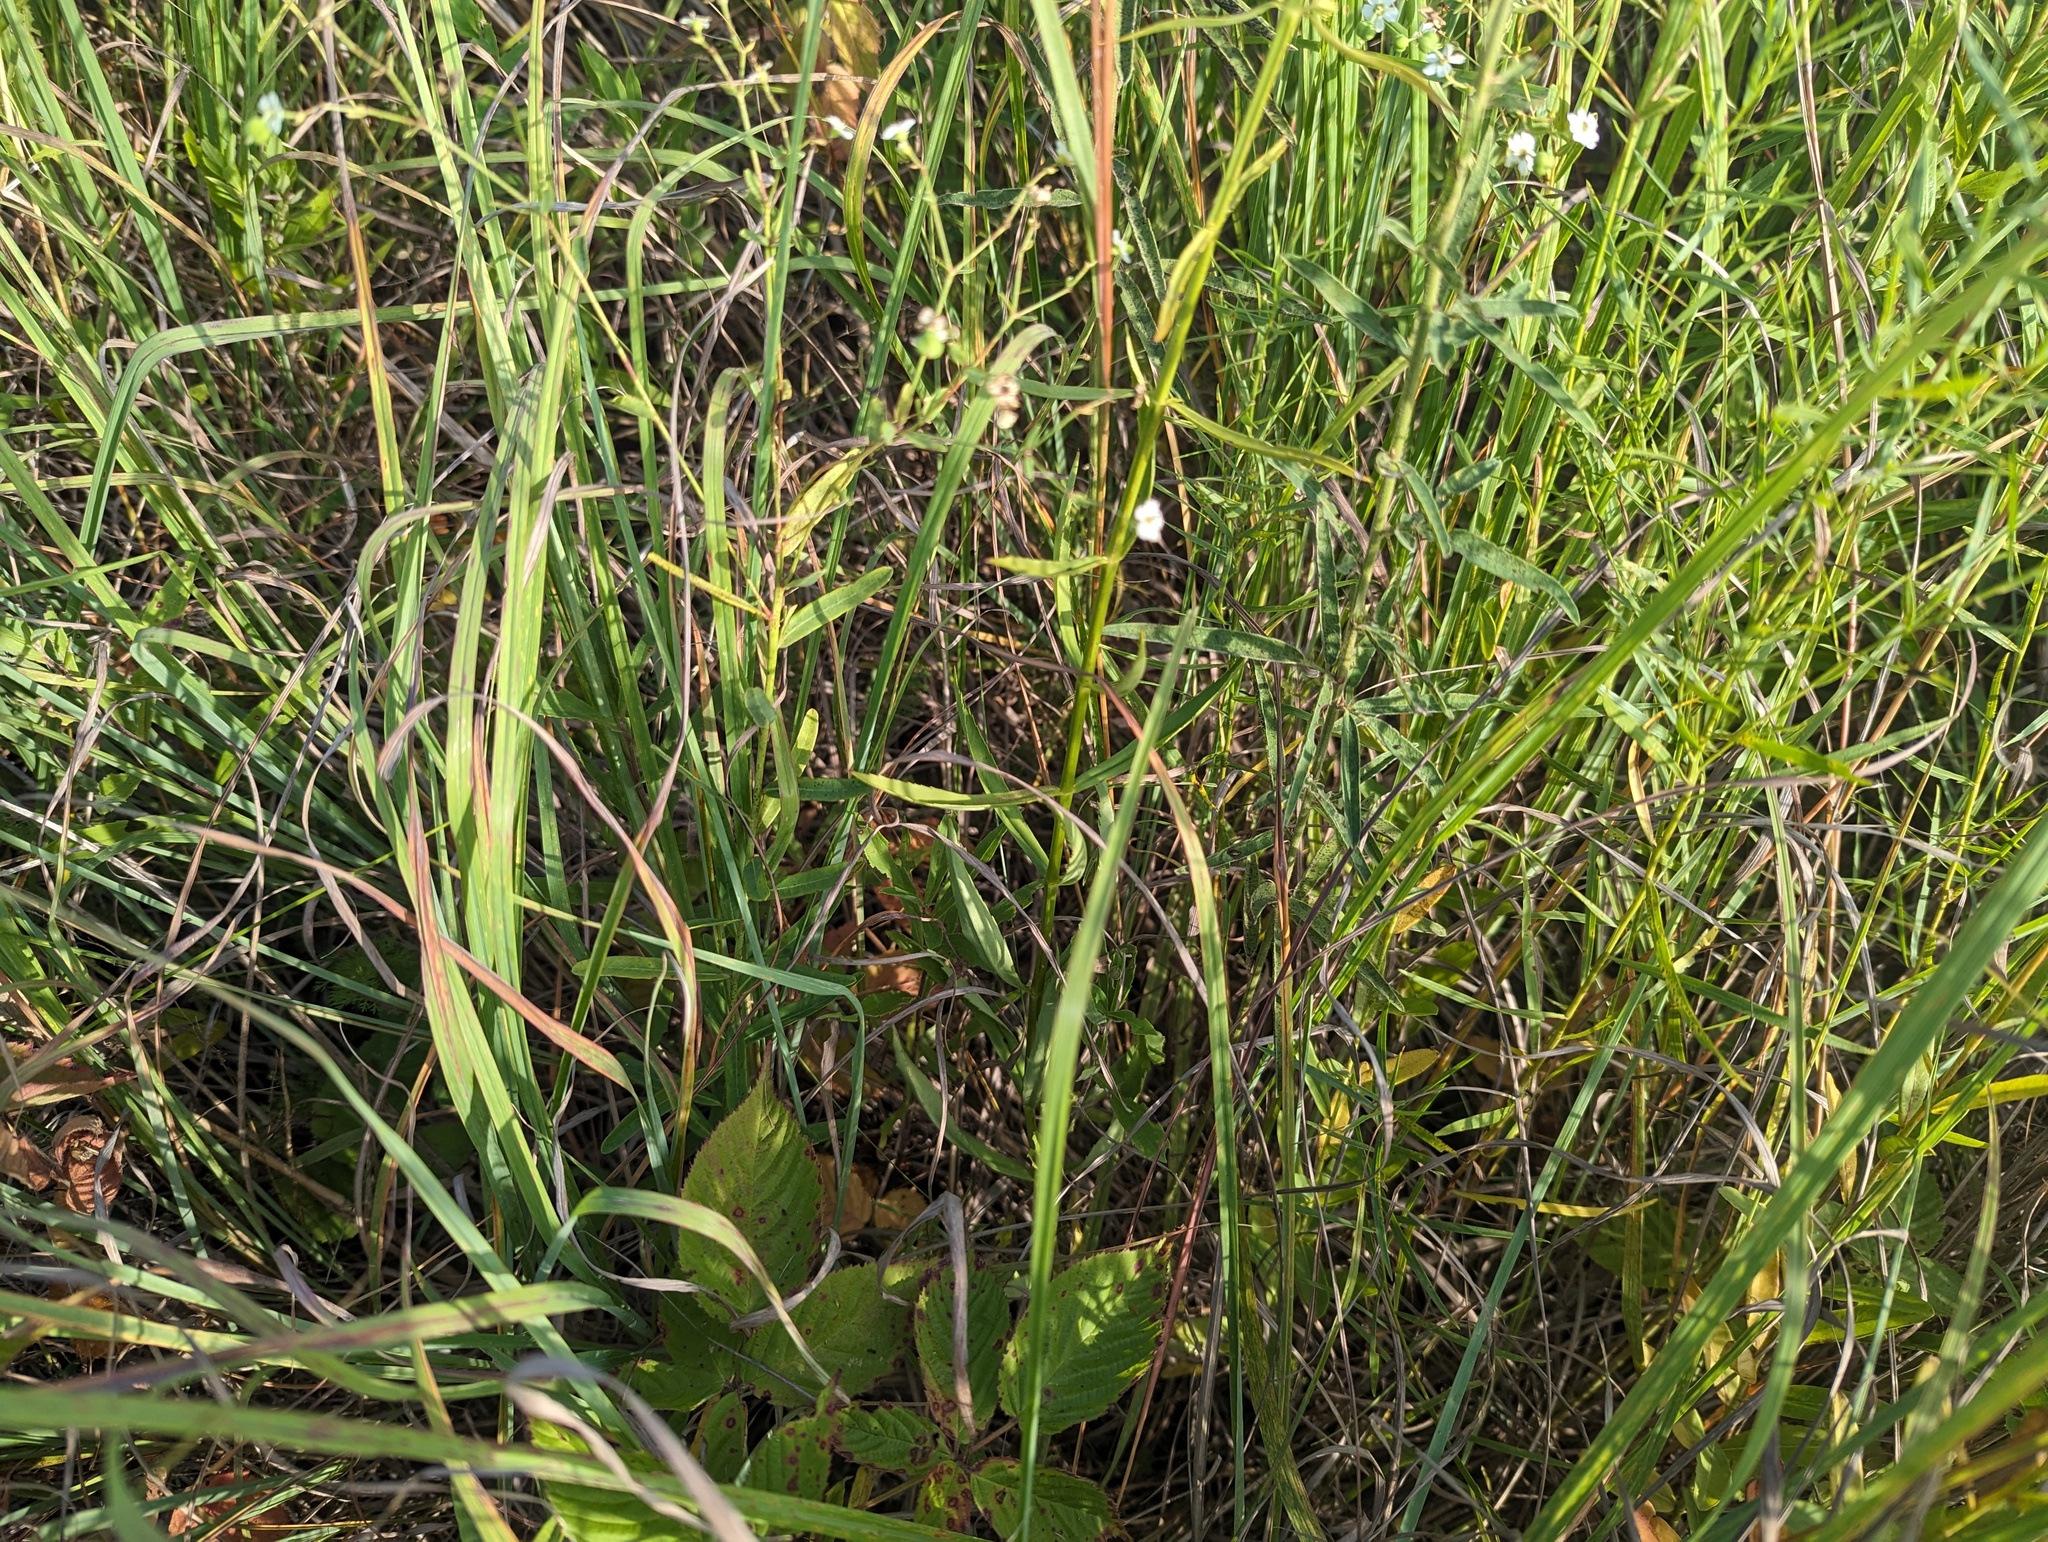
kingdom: Plantae
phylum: Tracheophyta
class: Magnoliopsida
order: Lamiales
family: Lamiaceae
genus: Physostegia
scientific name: Physostegia virginiana
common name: Obedient-plant
